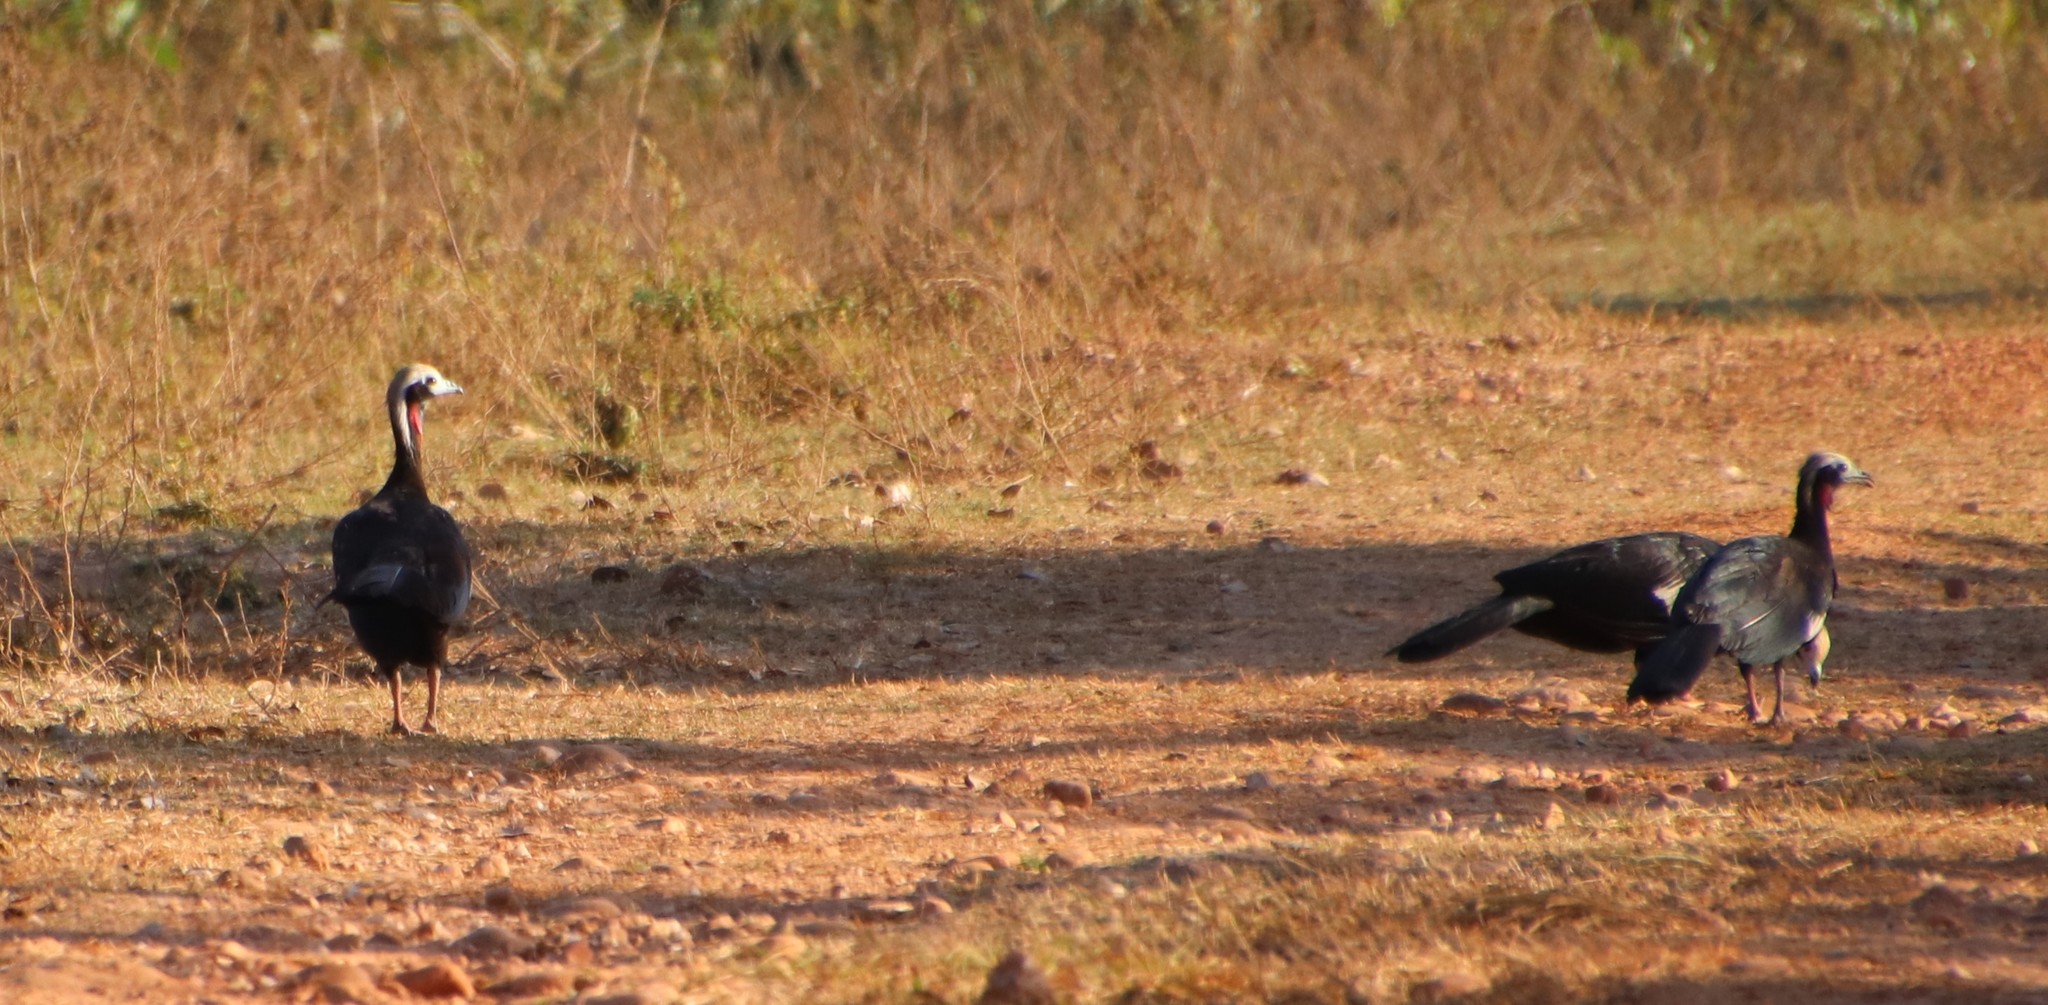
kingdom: Animalia
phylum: Chordata
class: Aves
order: Galliformes
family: Cracidae
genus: Pipile
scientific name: Pipile cujubi
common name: Red-throated piping-guan
